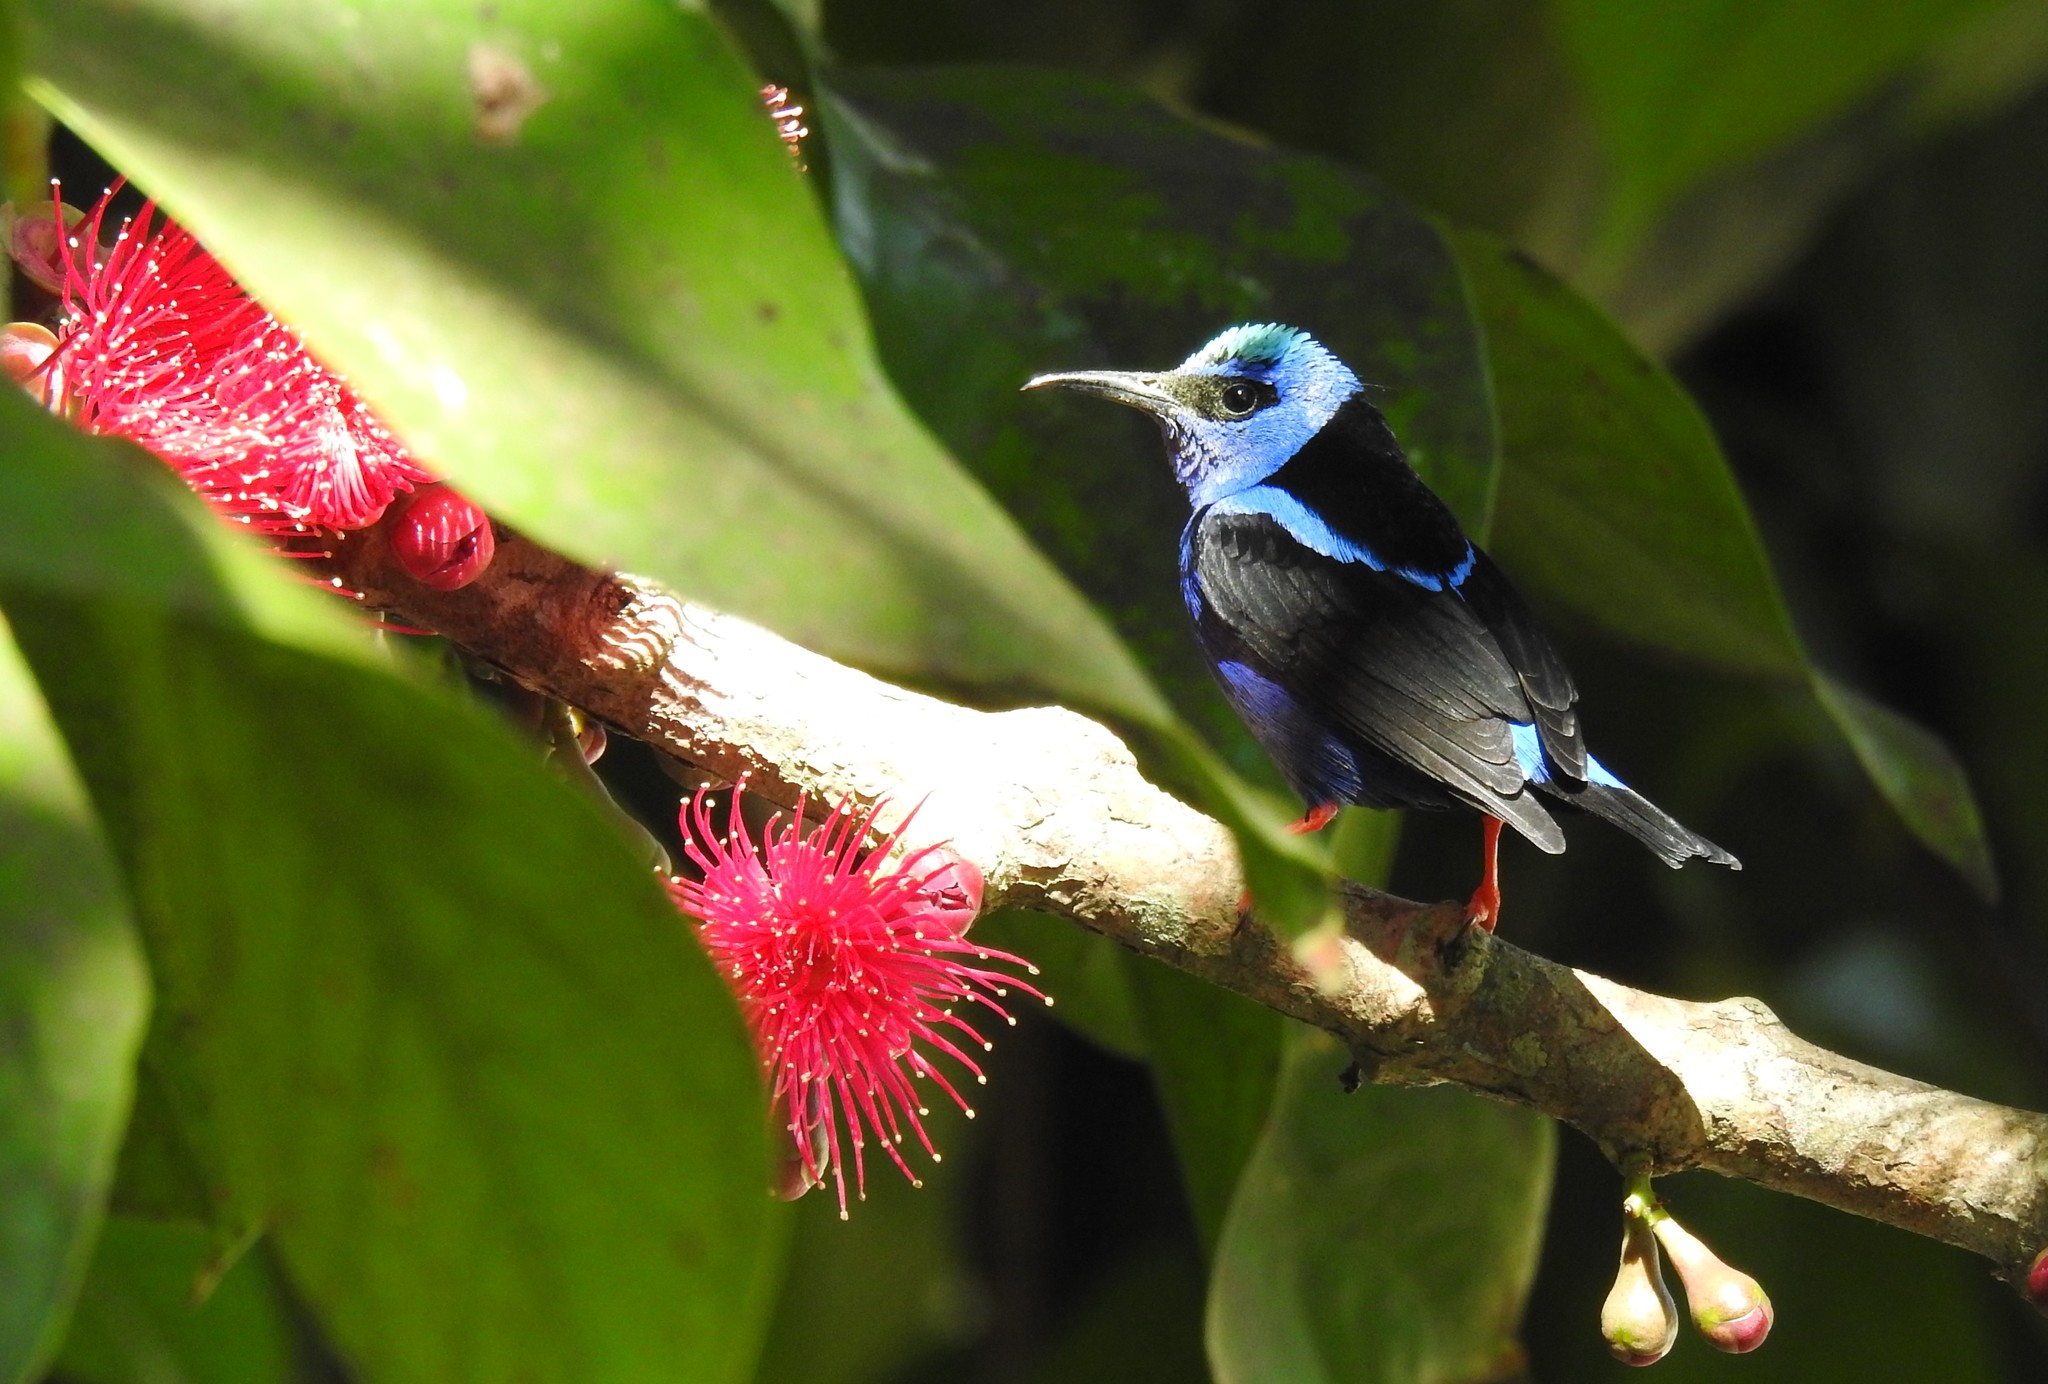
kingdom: Animalia
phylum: Chordata
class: Aves
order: Passeriformes
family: Thraupidae
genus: Cyanerpes
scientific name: Cyanerpes cyaneus
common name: Red-legged honeycreeper
